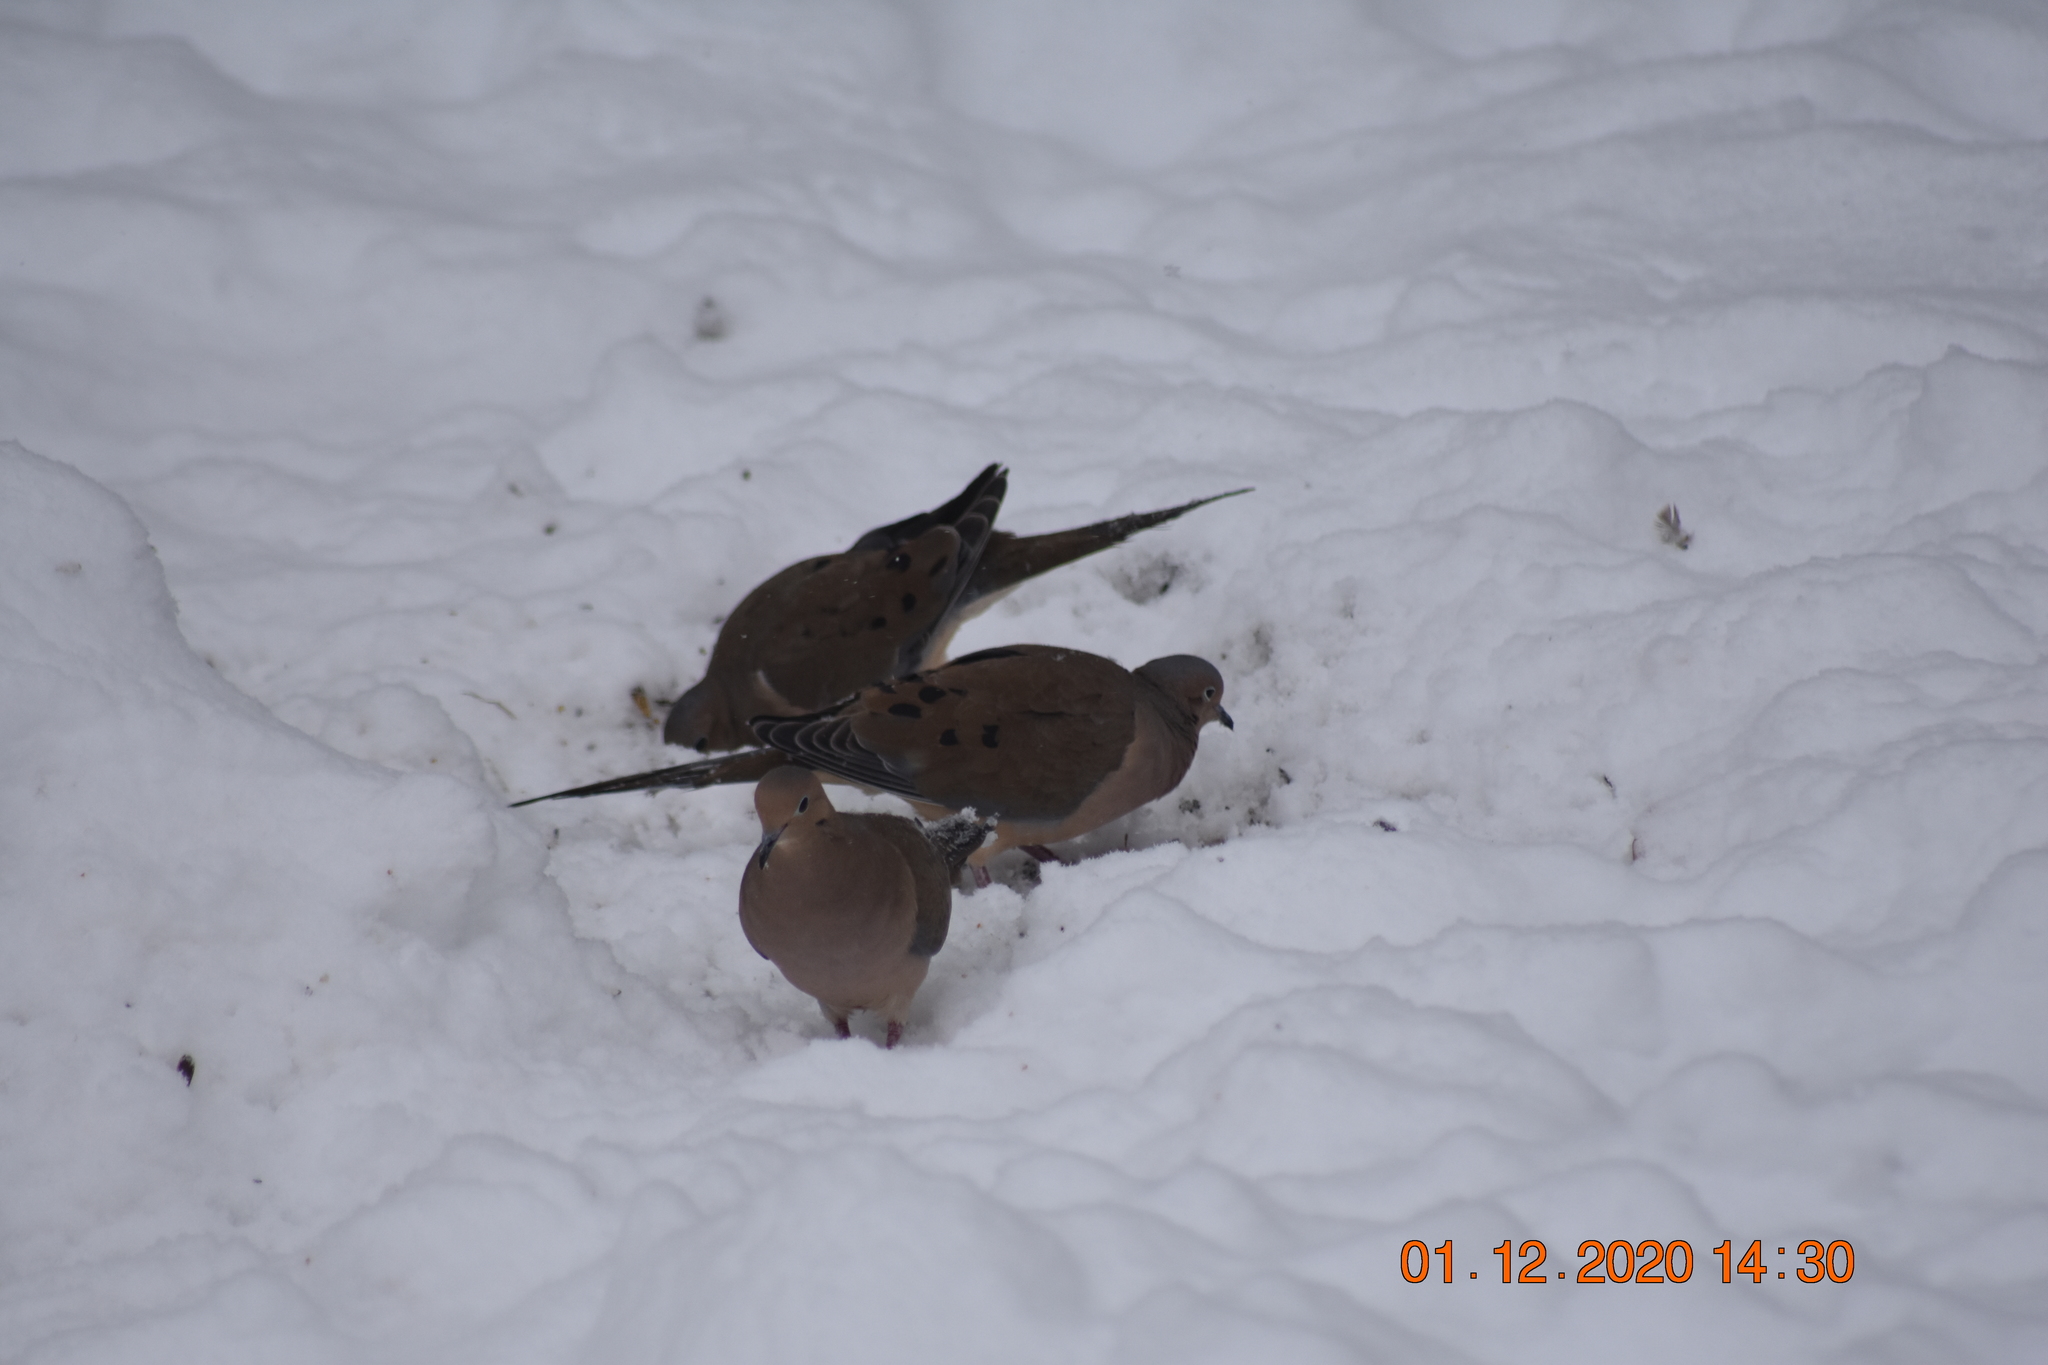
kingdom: Animalia
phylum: Chordata
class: Aves
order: Columbiformes
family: Columbidae
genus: Zenaida
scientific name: Zenaida macroura
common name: Mourning dove
